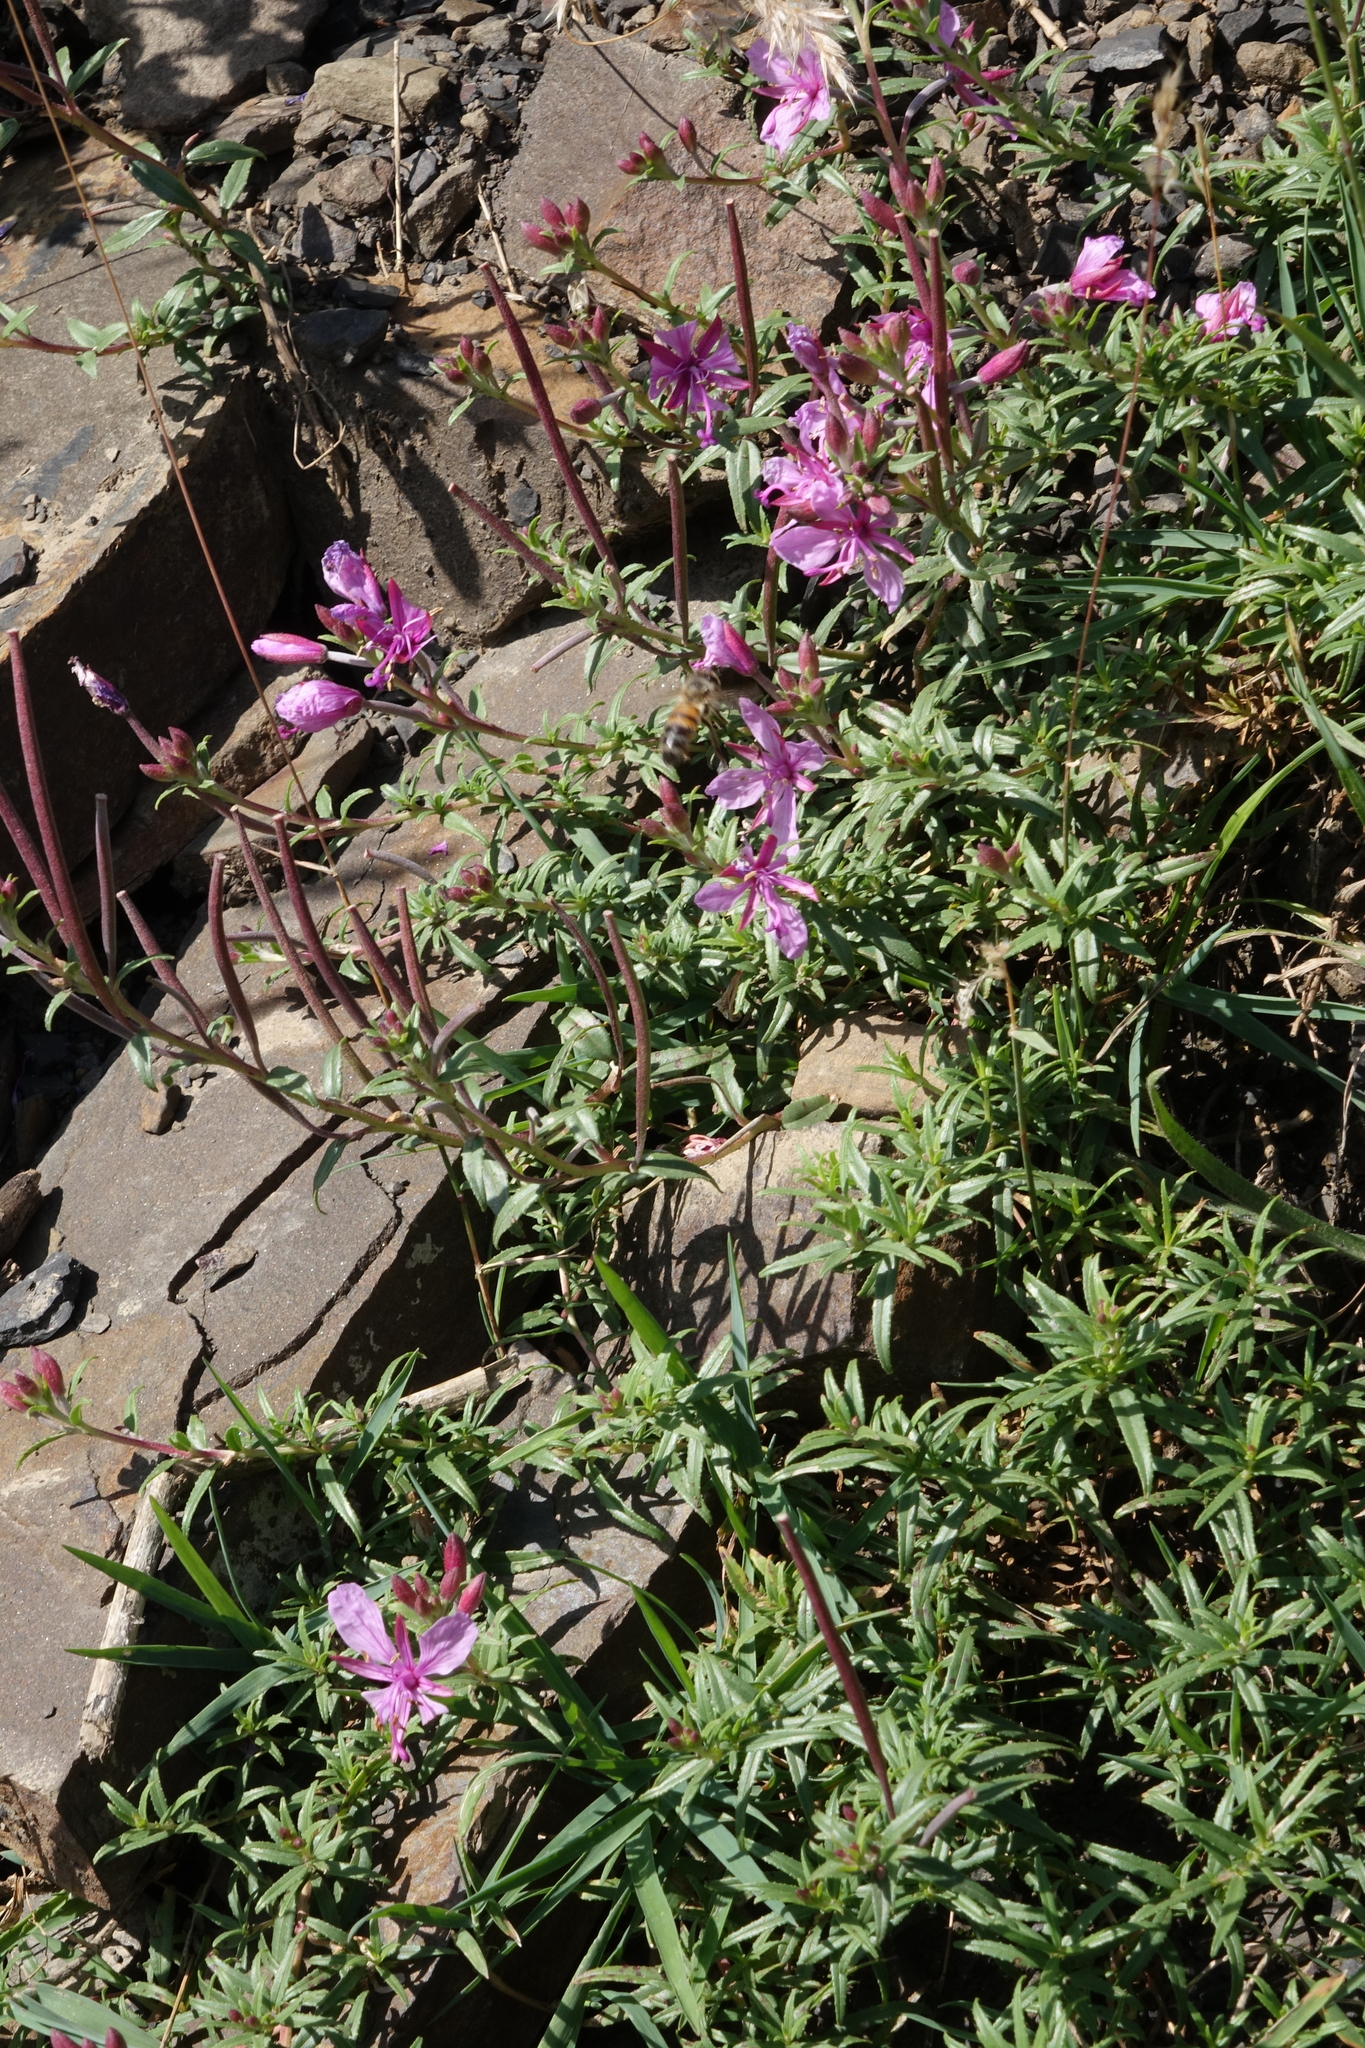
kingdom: Plantae
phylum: Tracheophyta
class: Magnoliopsida
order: Myrtales
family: Onagraceae
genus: Chamaenerion
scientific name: Chamaenerion colchicum
